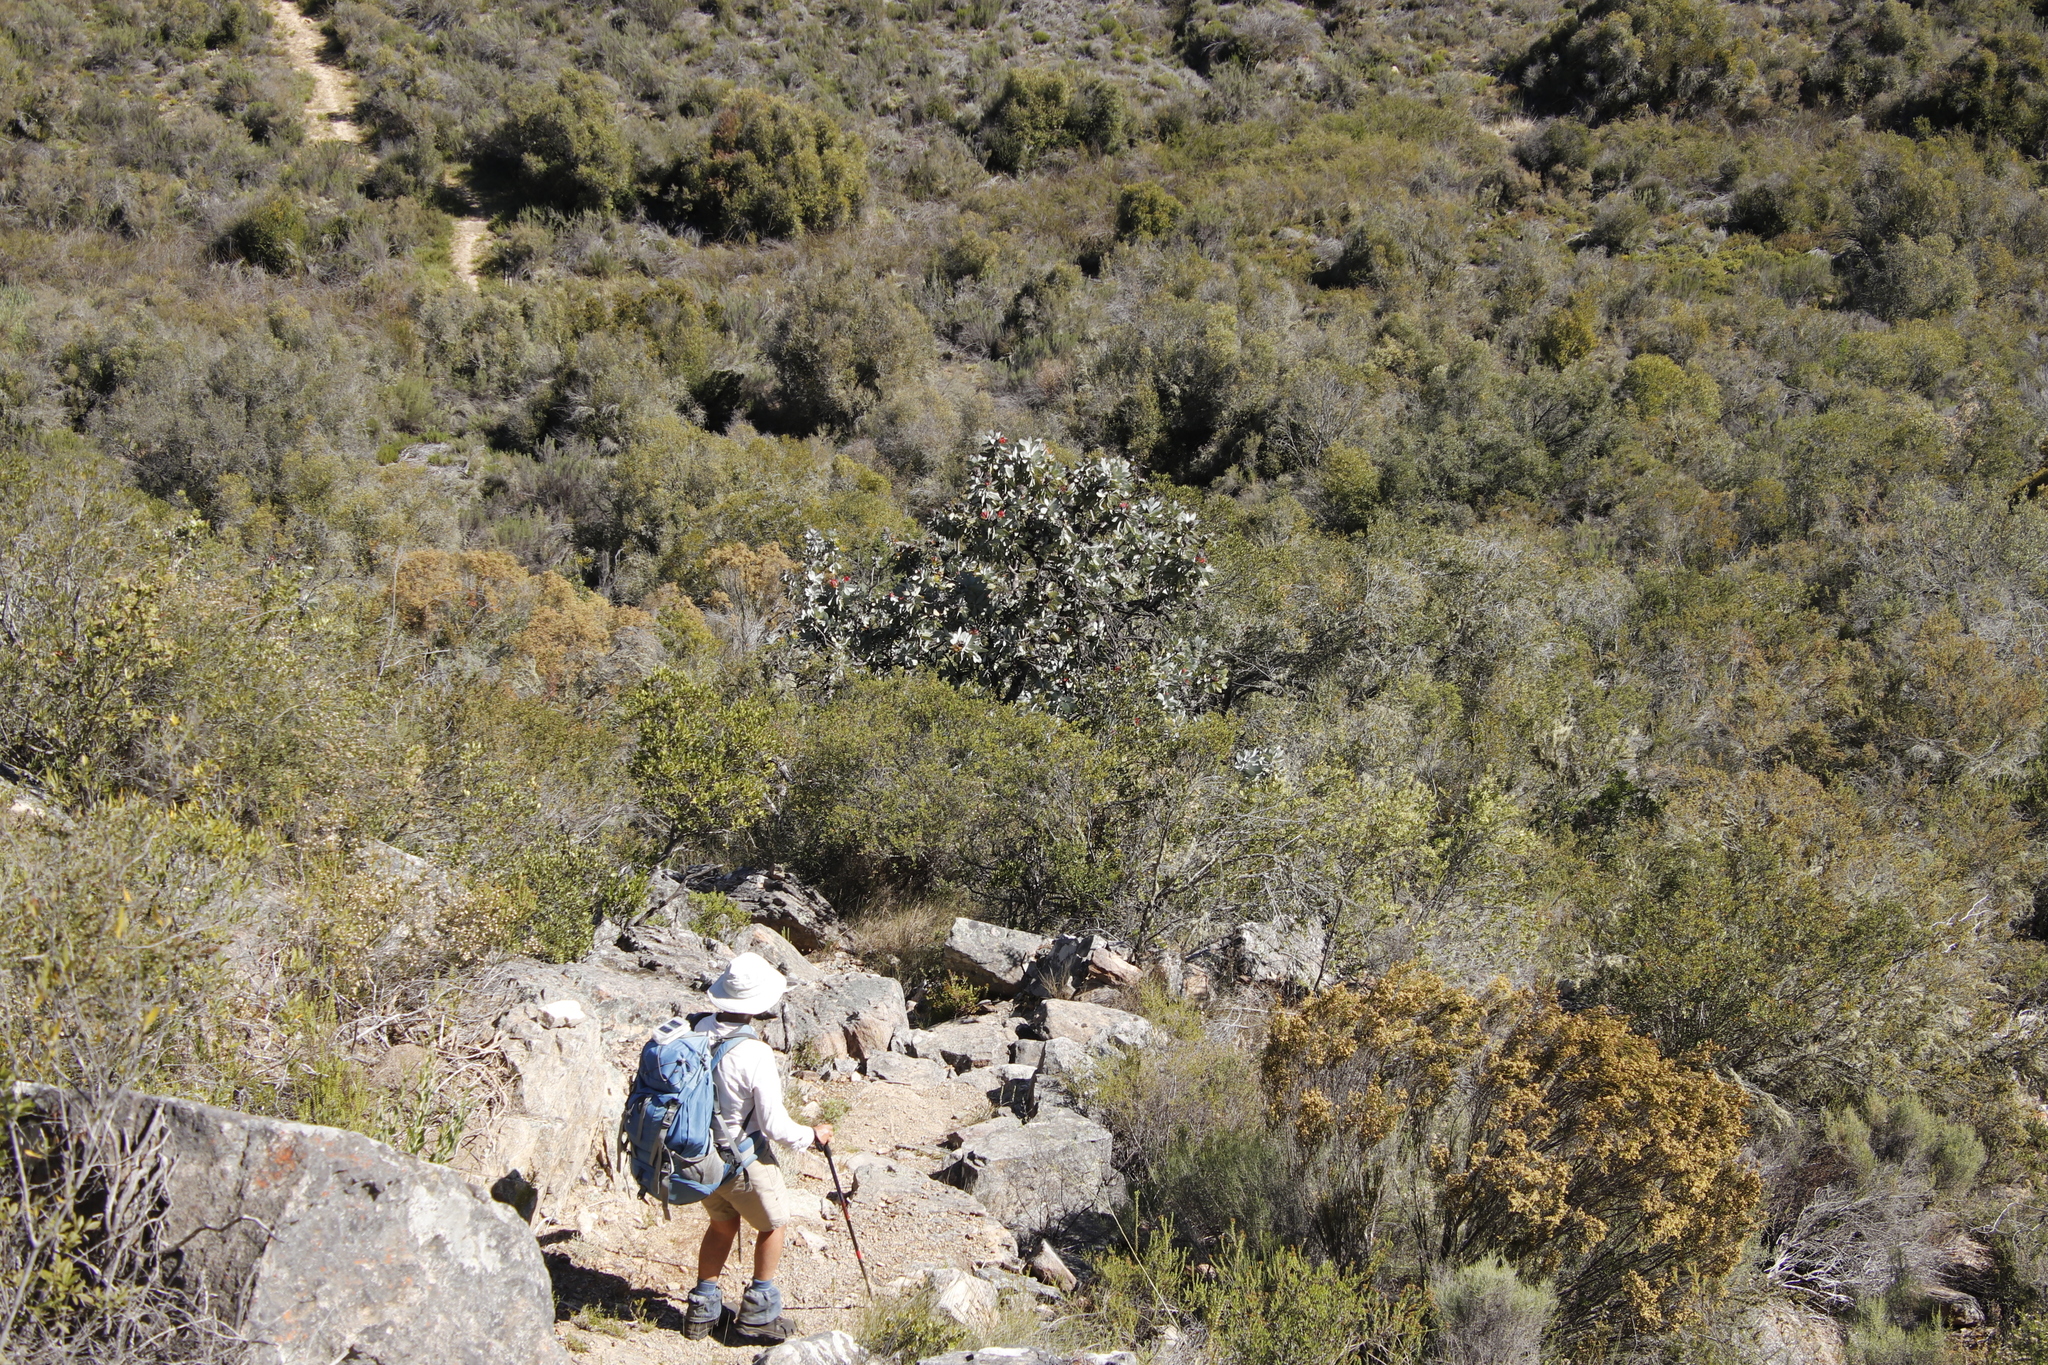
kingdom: Plantae
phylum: Tracheophyta
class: Magnoliopsida
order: Proteales
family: Proteaceae
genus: Protea
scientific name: Protea nitida
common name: Tree protea
